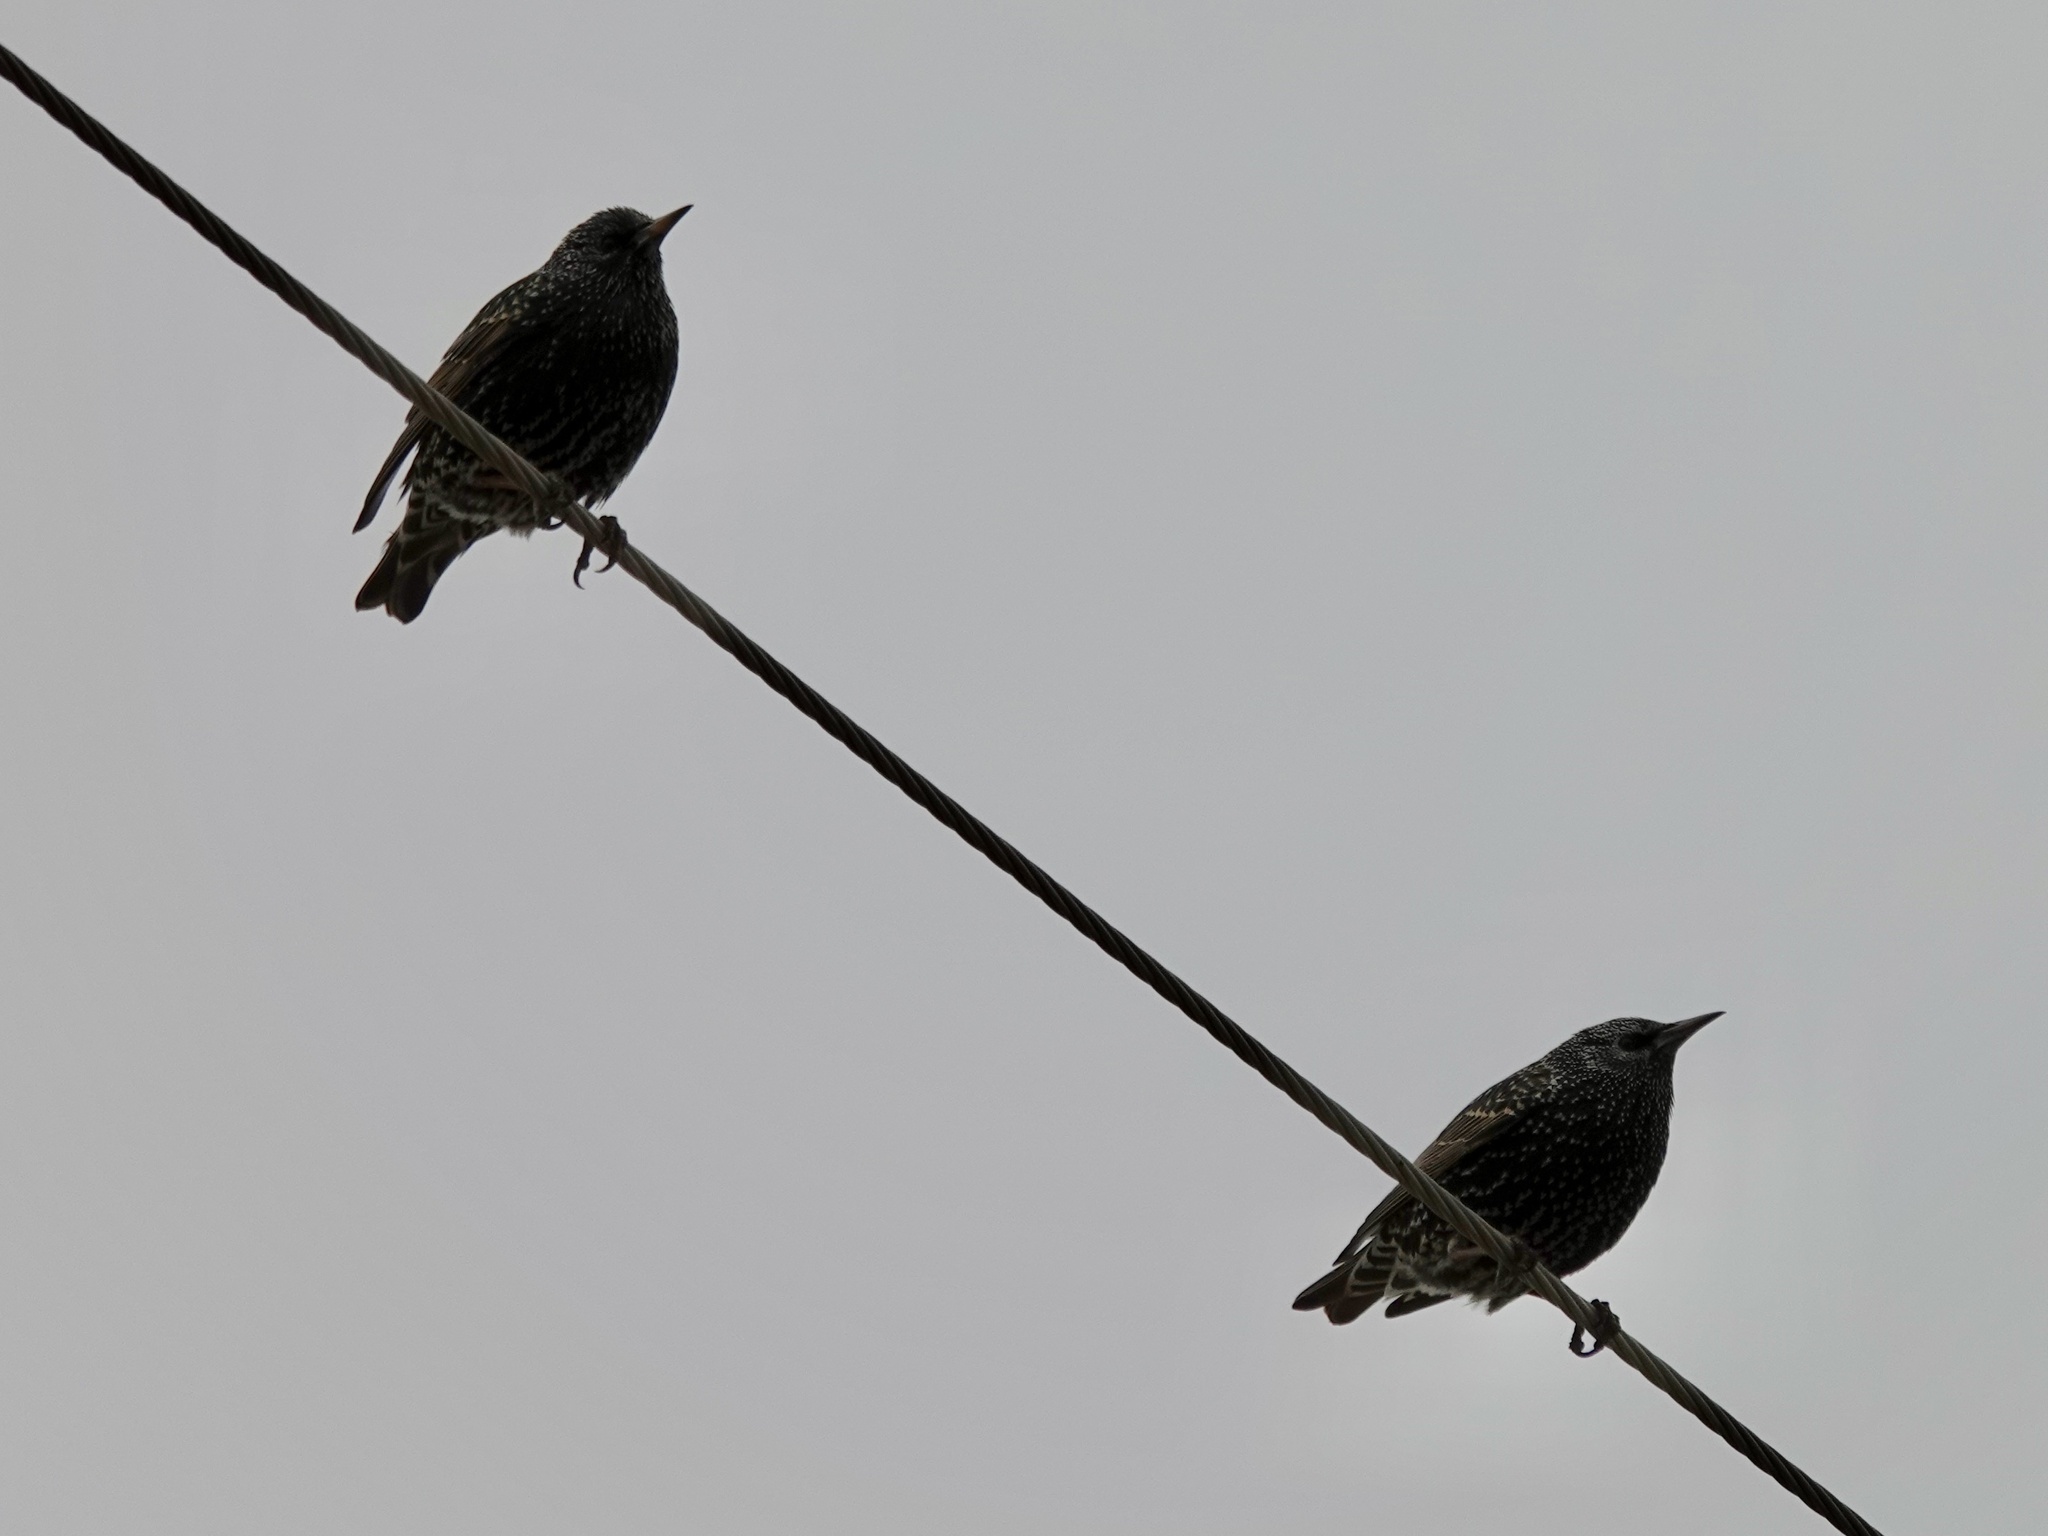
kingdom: Animalia
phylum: Chordata
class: Aves
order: Passeriformes
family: Sturnidae
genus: Sturnus
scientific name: Sturnus vulgaris
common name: Common starling
